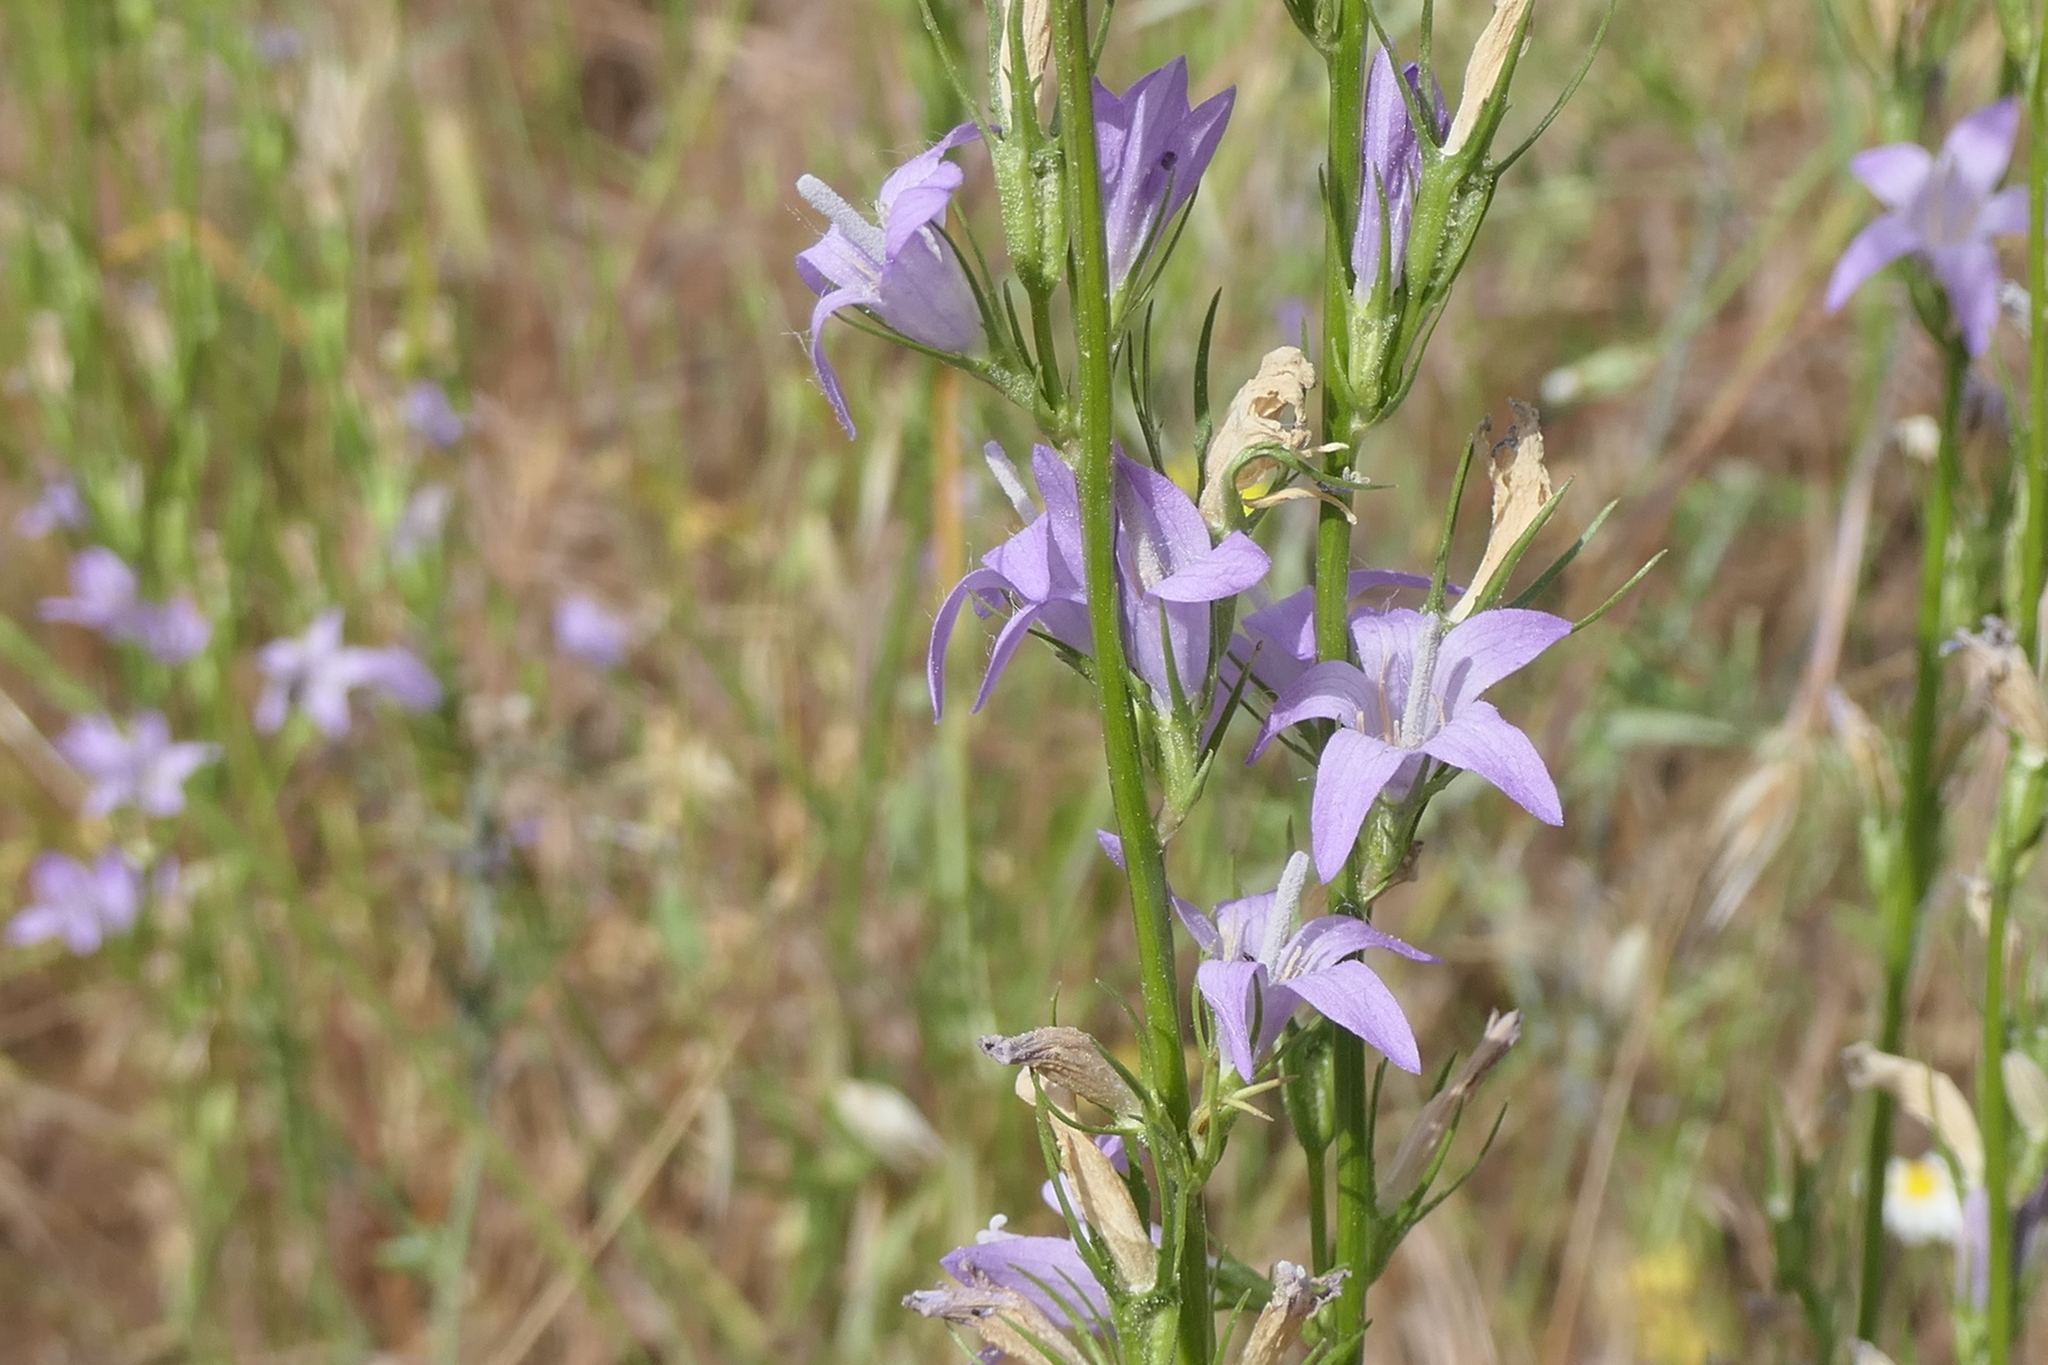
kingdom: Plantae
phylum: Tracheophyta
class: Magnoliopsida
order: Asterales
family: Campanulaceae
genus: Campanula
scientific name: Campanula rapunculus
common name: Rampion bellflower
